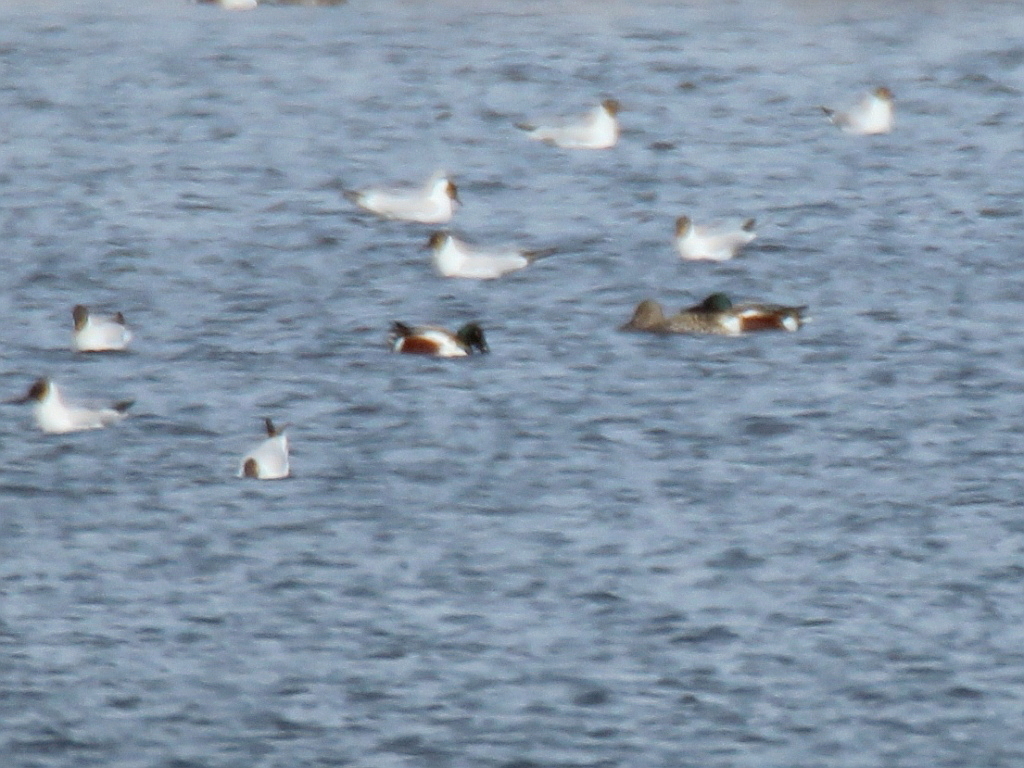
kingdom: Animalia
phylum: Chordata
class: Aves
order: Anseriformes
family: Anatidae
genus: Spatula
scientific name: Spatula clypeata
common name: Northern shoveler
